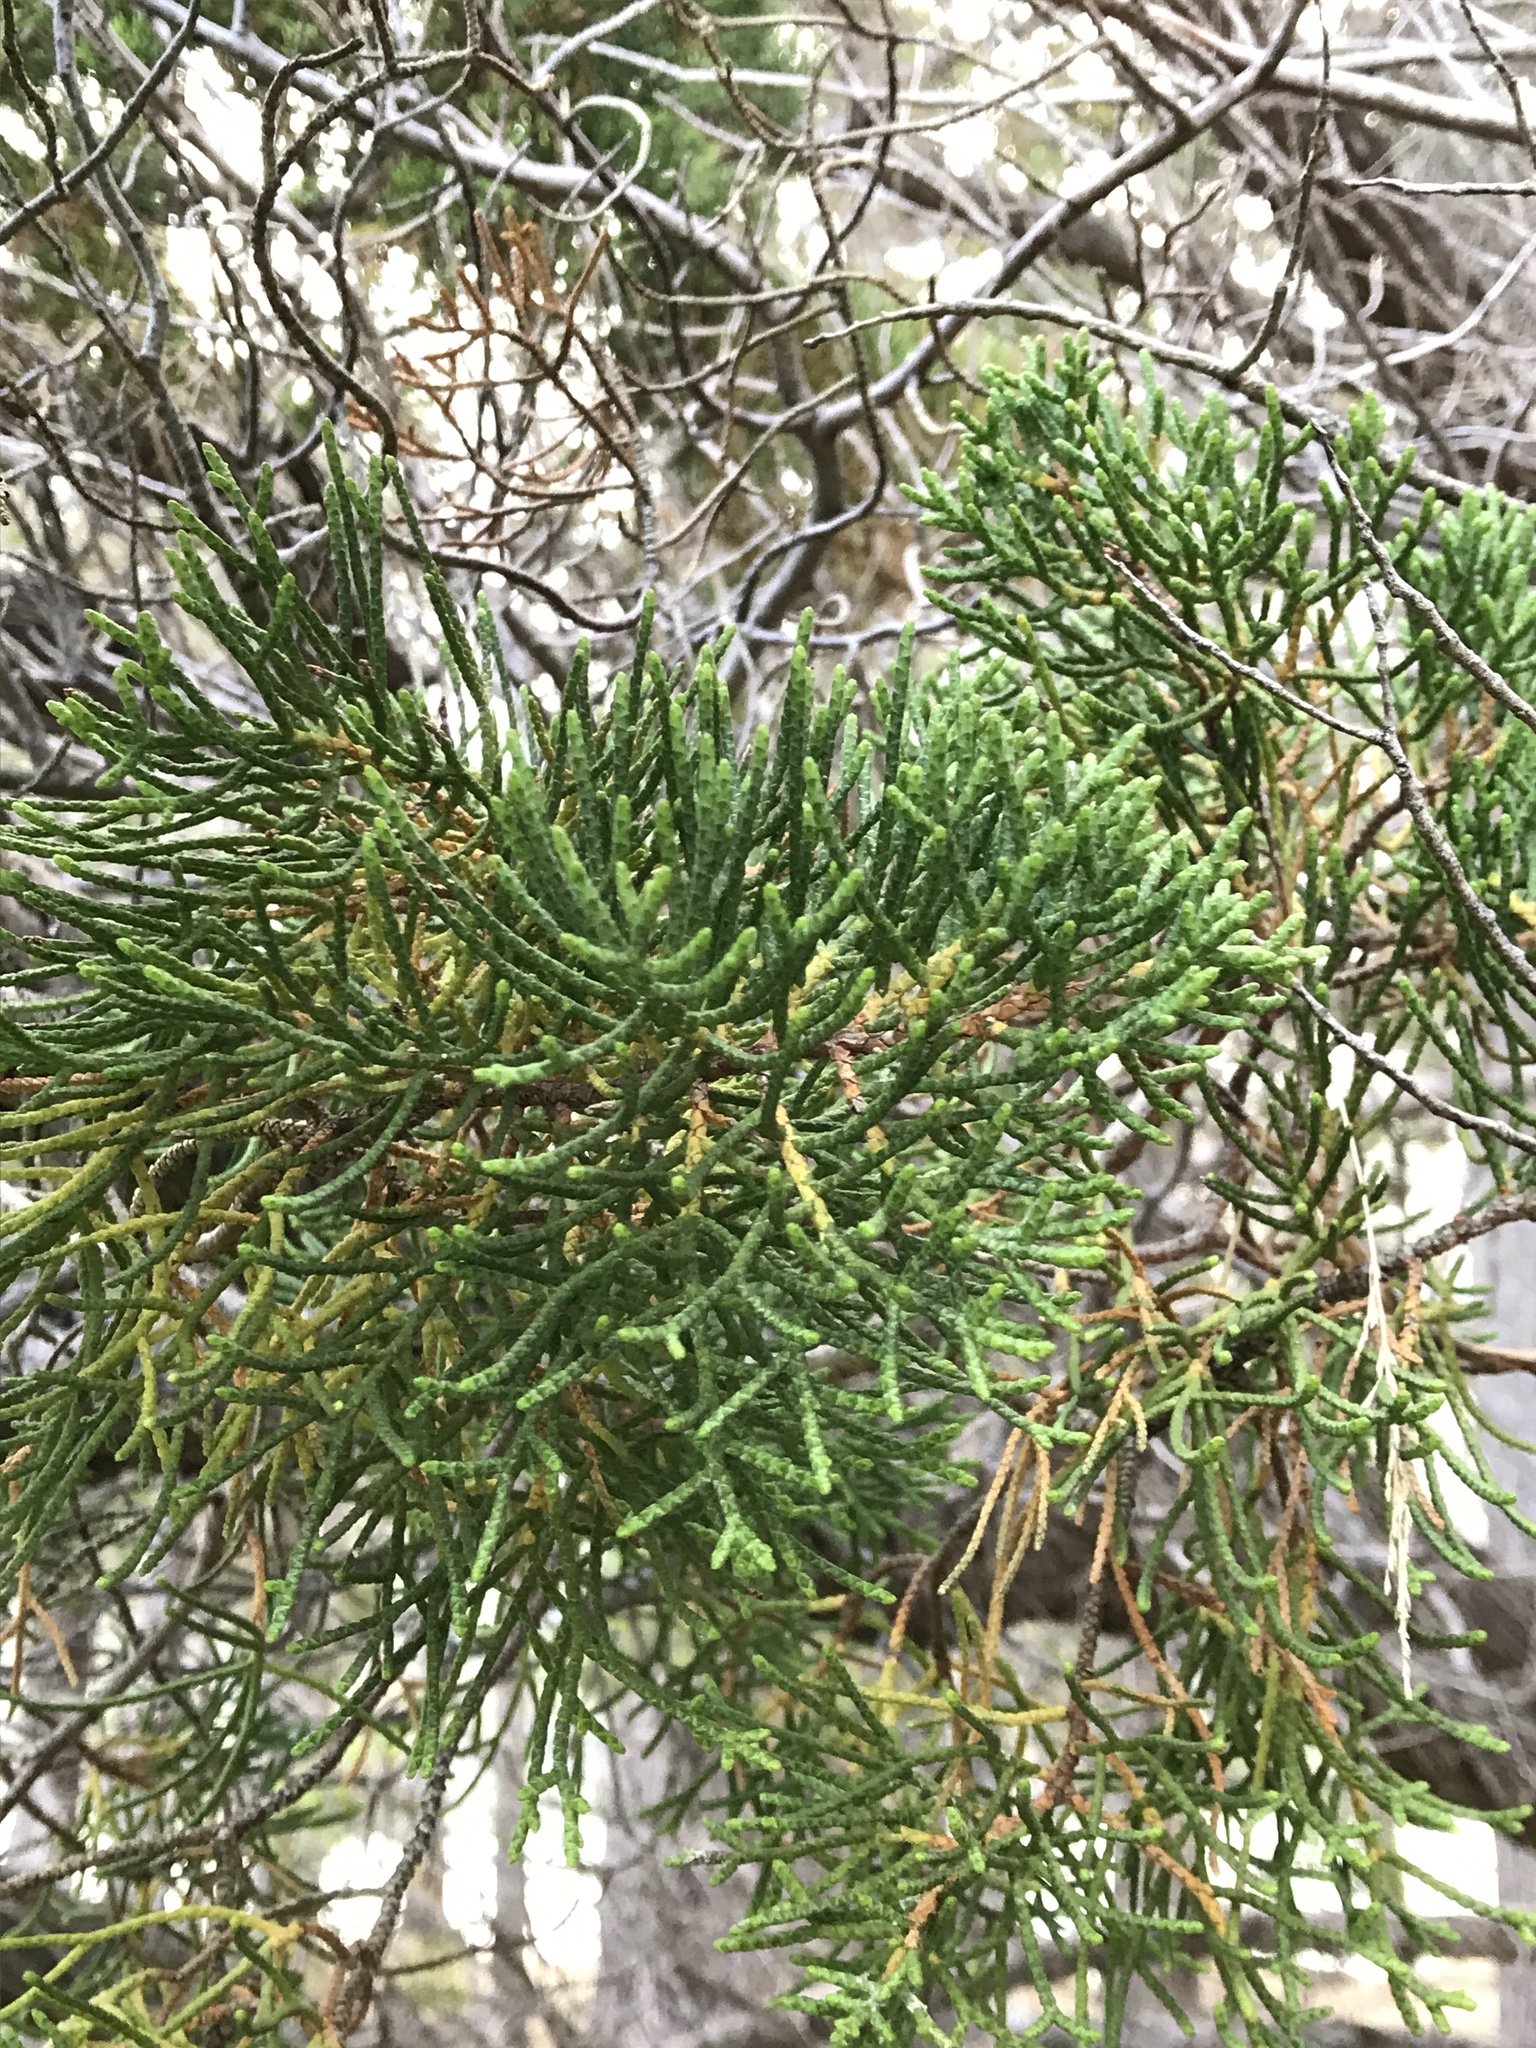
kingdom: Plantae
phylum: Tracheophyta
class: Pinopsida
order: Pinales
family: Cupressaceae
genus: Cupressus
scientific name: Cupressus macrocarpa
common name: Monterey cypress
